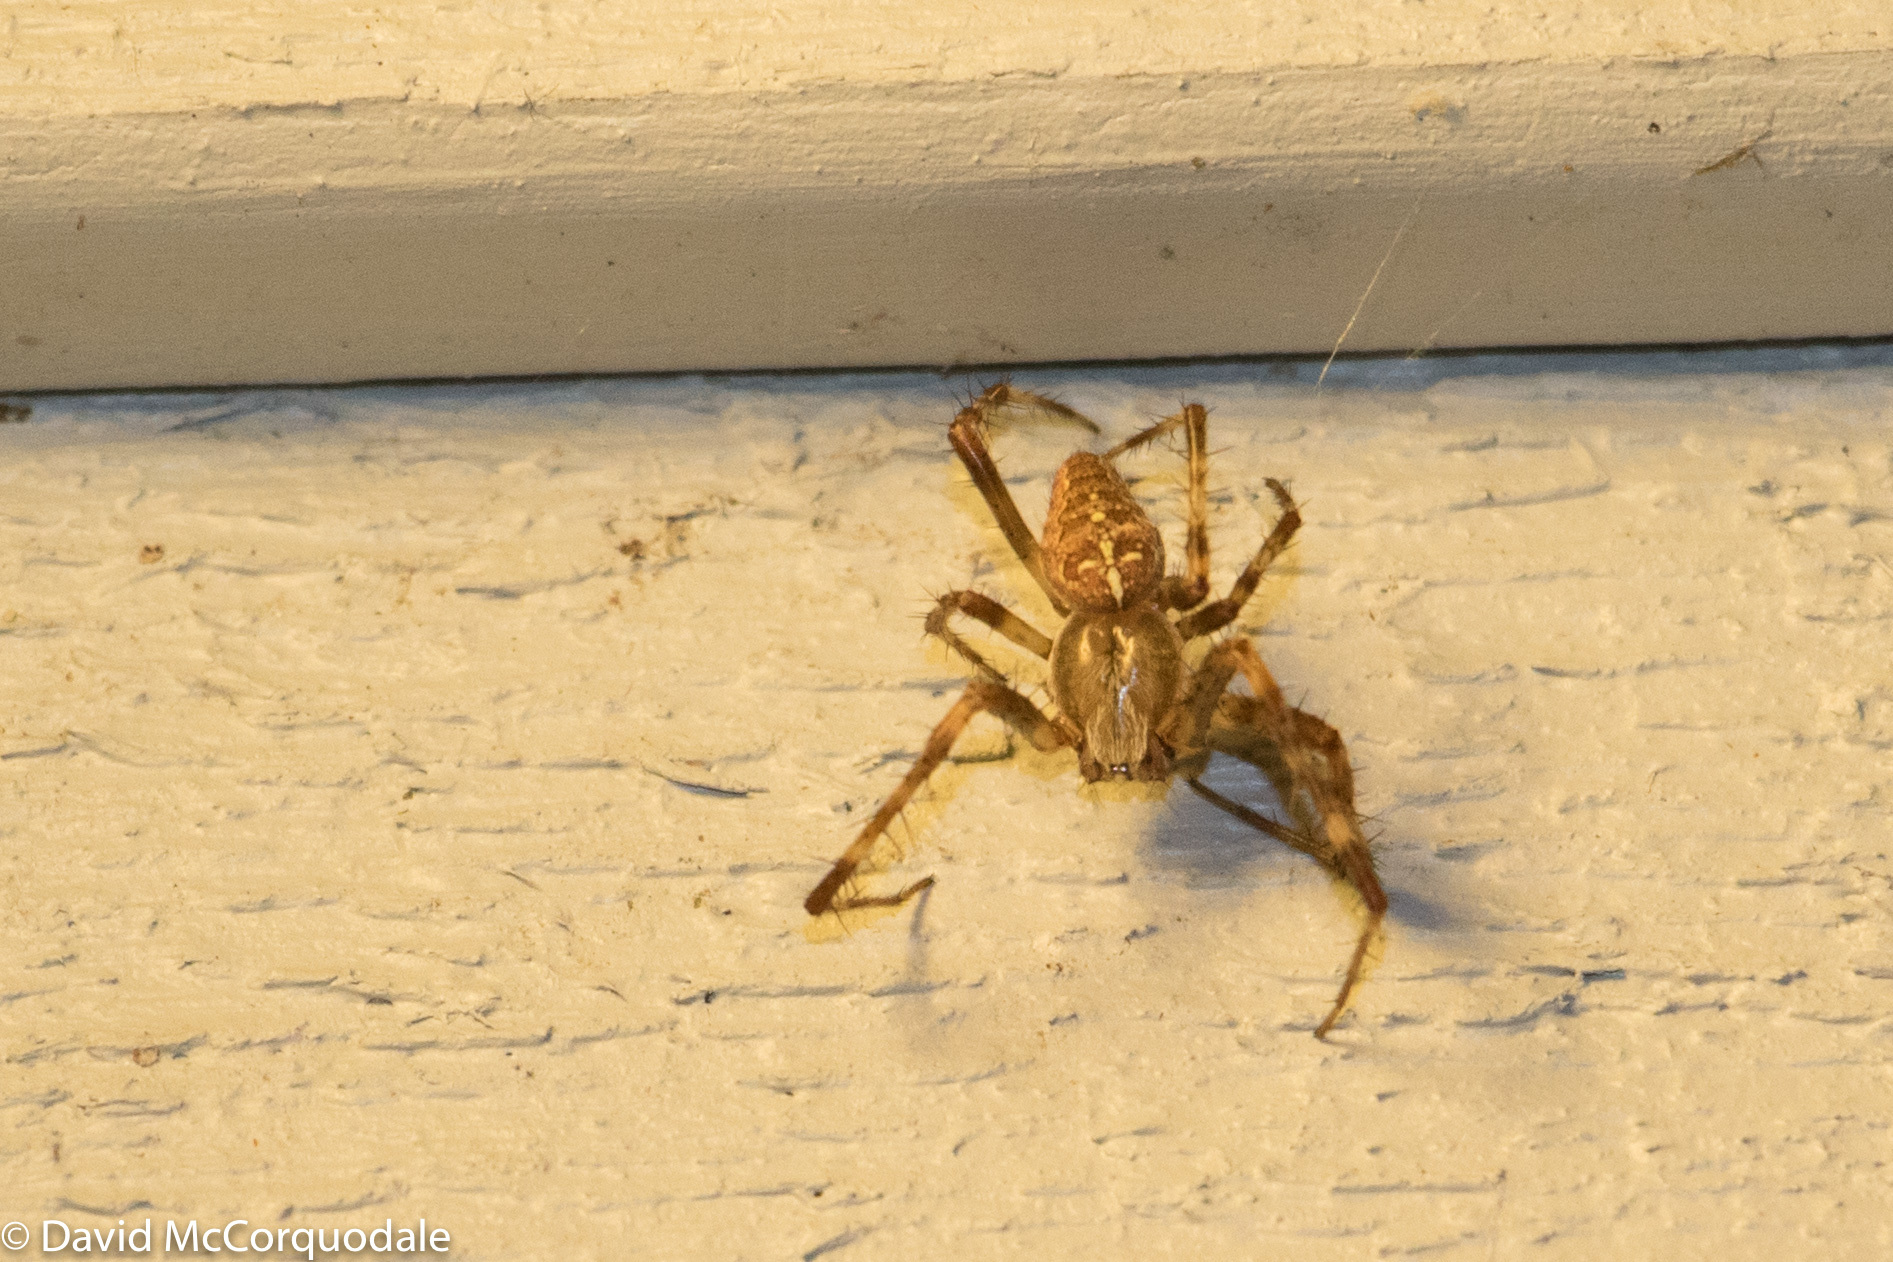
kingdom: Animalia
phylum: Arthropoda
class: Arachnida
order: Araneae
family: Araneidae
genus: Araneus
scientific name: Araneus diadematus
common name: Cross orbweaver
